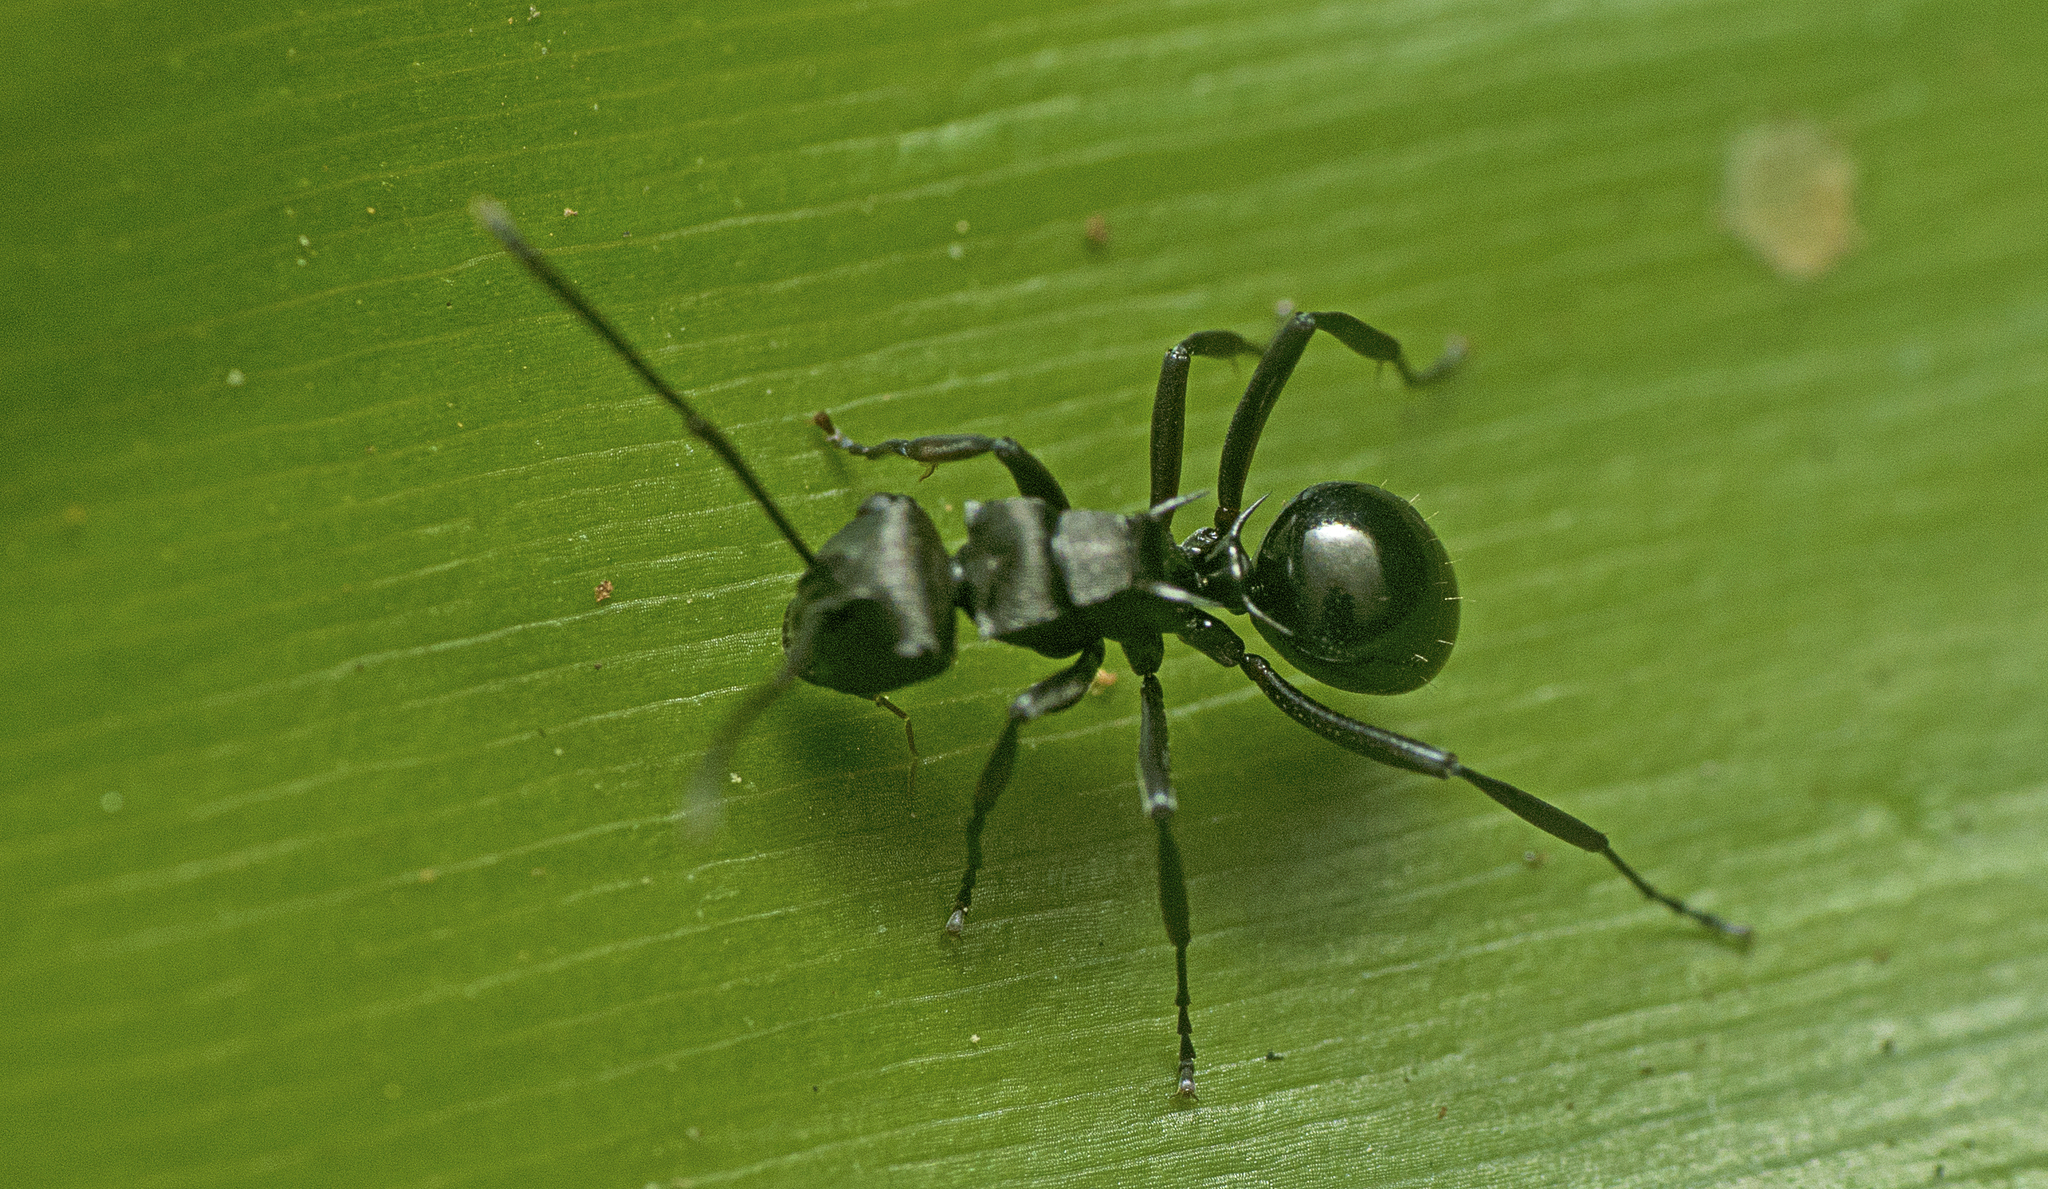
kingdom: Animalia
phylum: Arthropoda
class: Insecta
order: Hymenoptera
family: Formicidae
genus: Polyrhachis
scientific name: Polyrhachis clio
